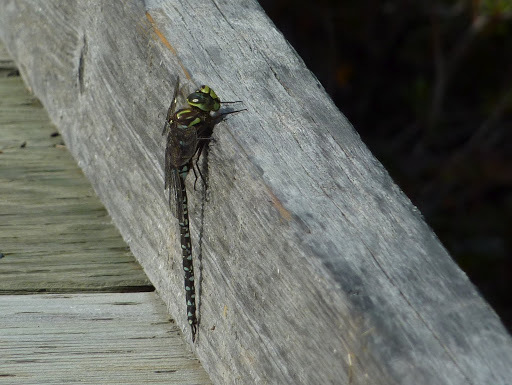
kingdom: Animalia
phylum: Arthropoda
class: Insecta
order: Odonata
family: Aeshnidae
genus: Aeshna
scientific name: Aeshna subarctica
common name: Subarctic darner
